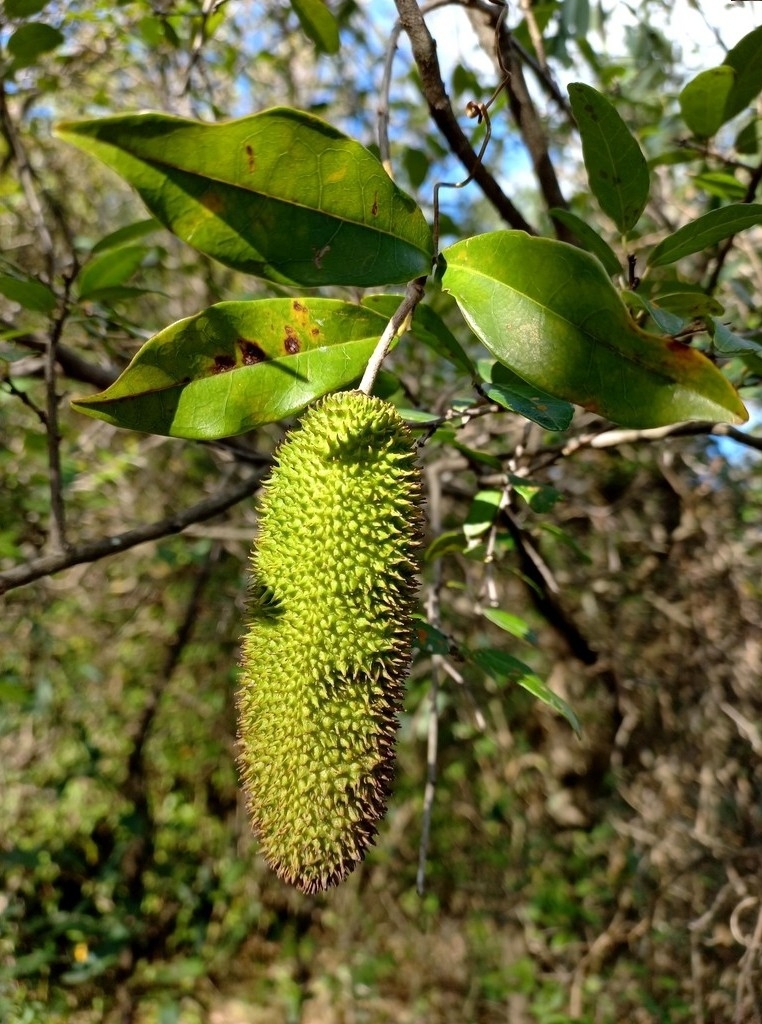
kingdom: Plantae
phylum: Tracheophyta
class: Magnoliopsida
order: Lamiales
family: Bignoniaceae
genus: Bignonia
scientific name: Bignonia callistegioides
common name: Argentine trumpetvine
